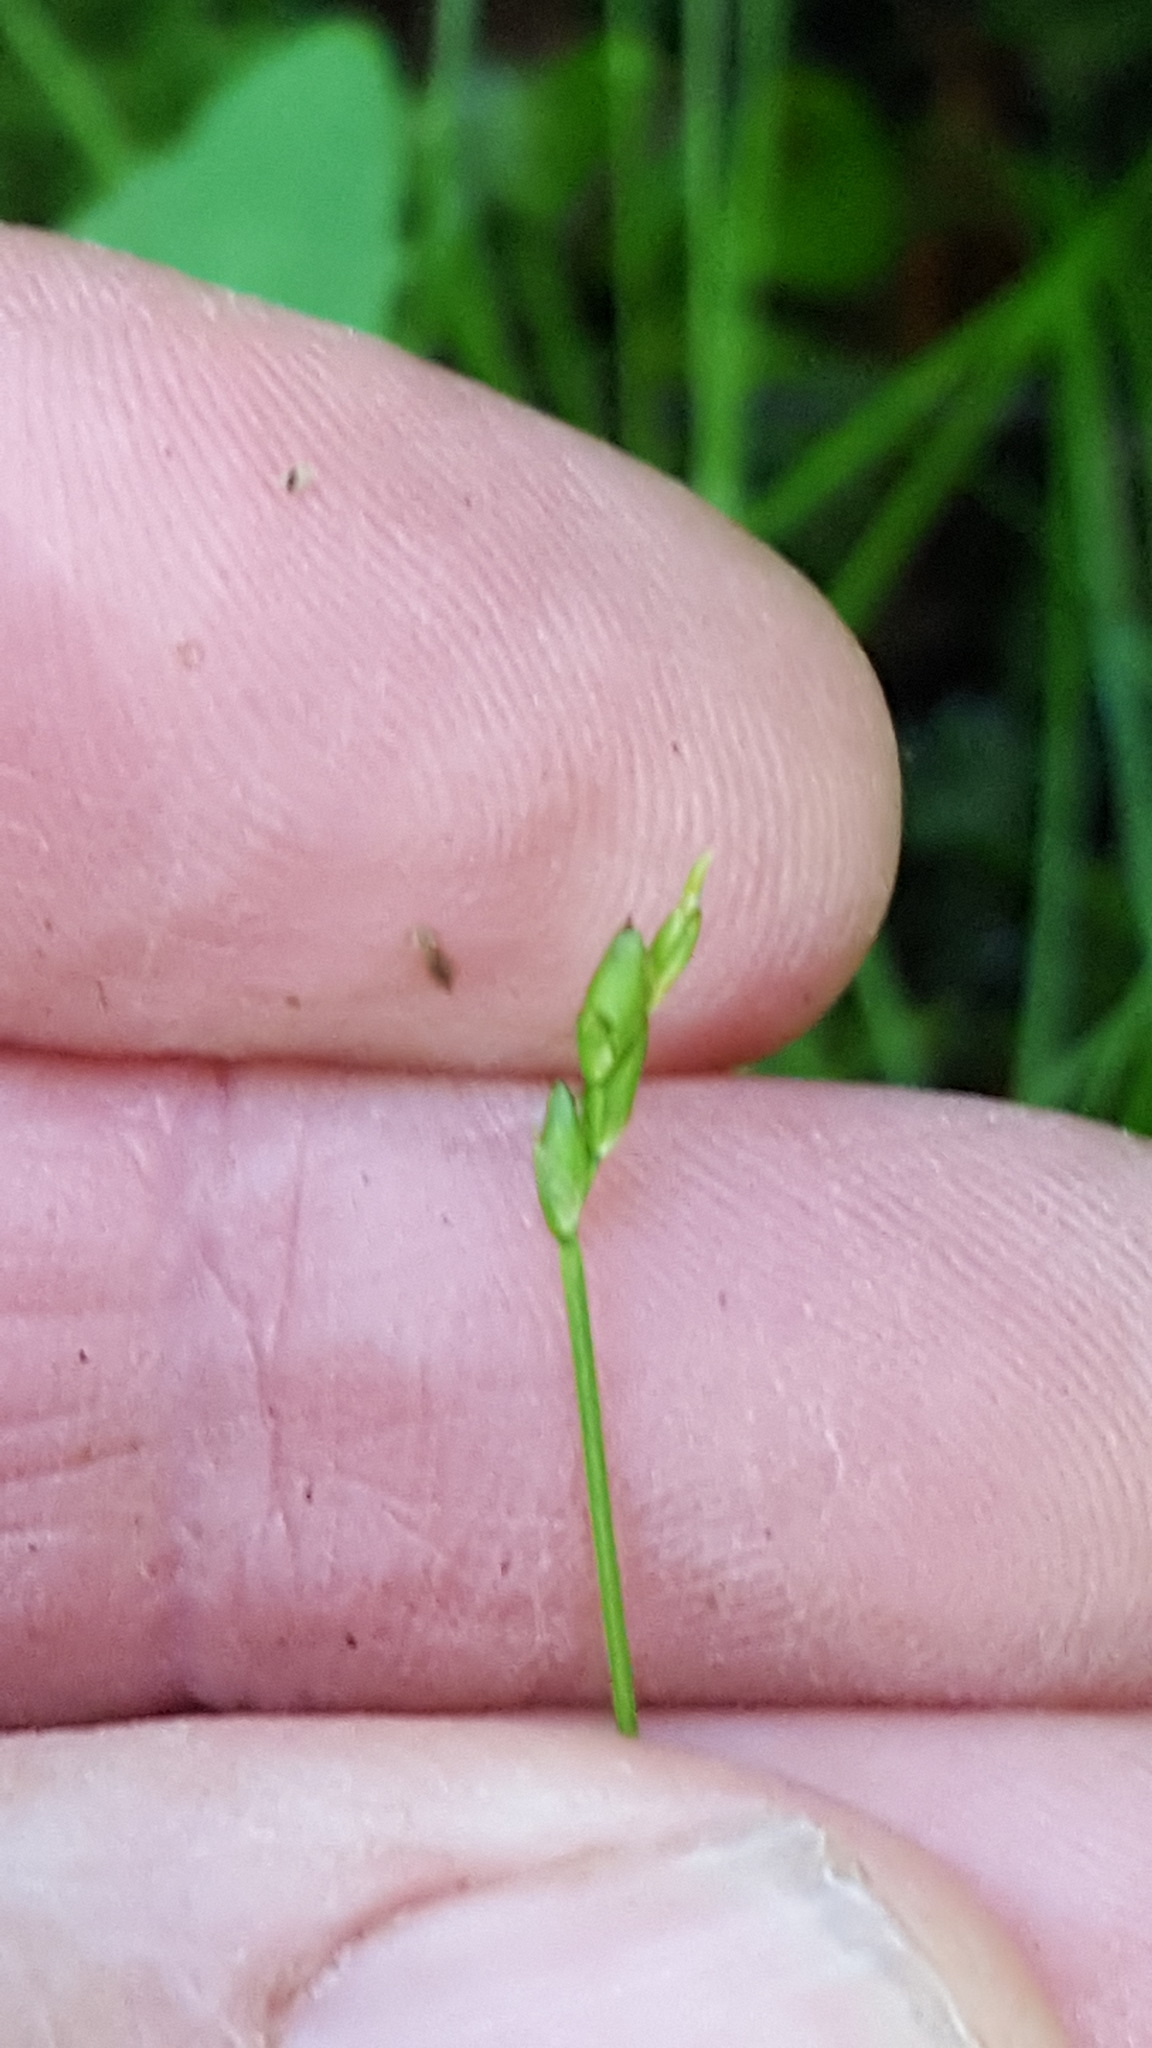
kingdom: Plantae
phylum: Tracheophyta
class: Liliopsida
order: Poales
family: Cyperaceae
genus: Carex
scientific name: Carex leptalea
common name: Bristly-stalked sedge
